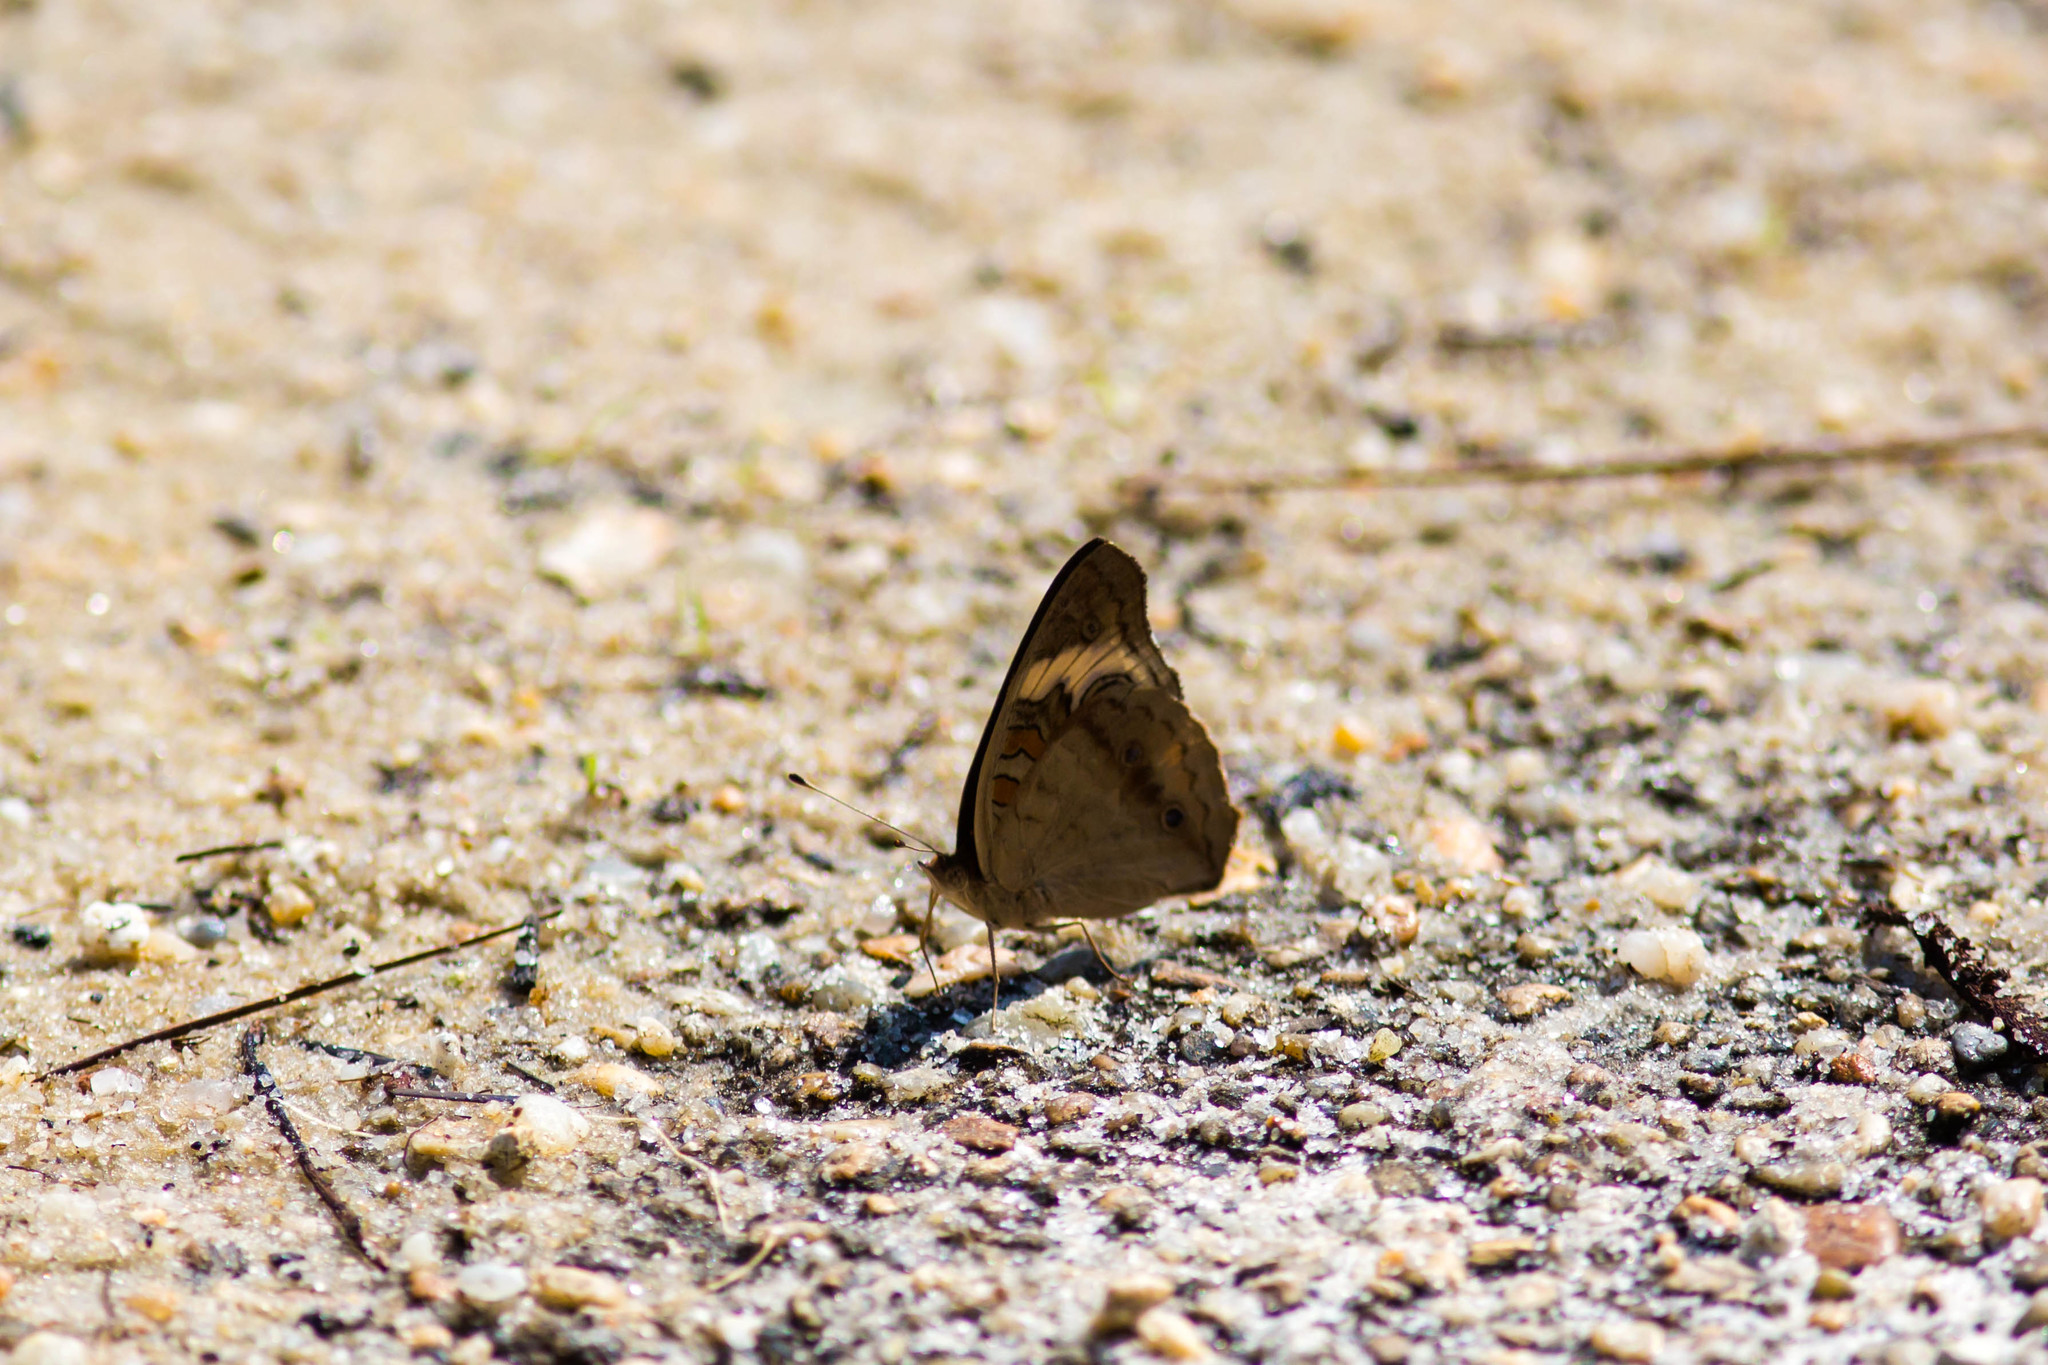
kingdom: Animalia
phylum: Arthropoda
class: Insecta
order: Lepidoptera
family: Nymphalidae
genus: Junonia
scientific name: Junonia coenia
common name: Common buckeye
